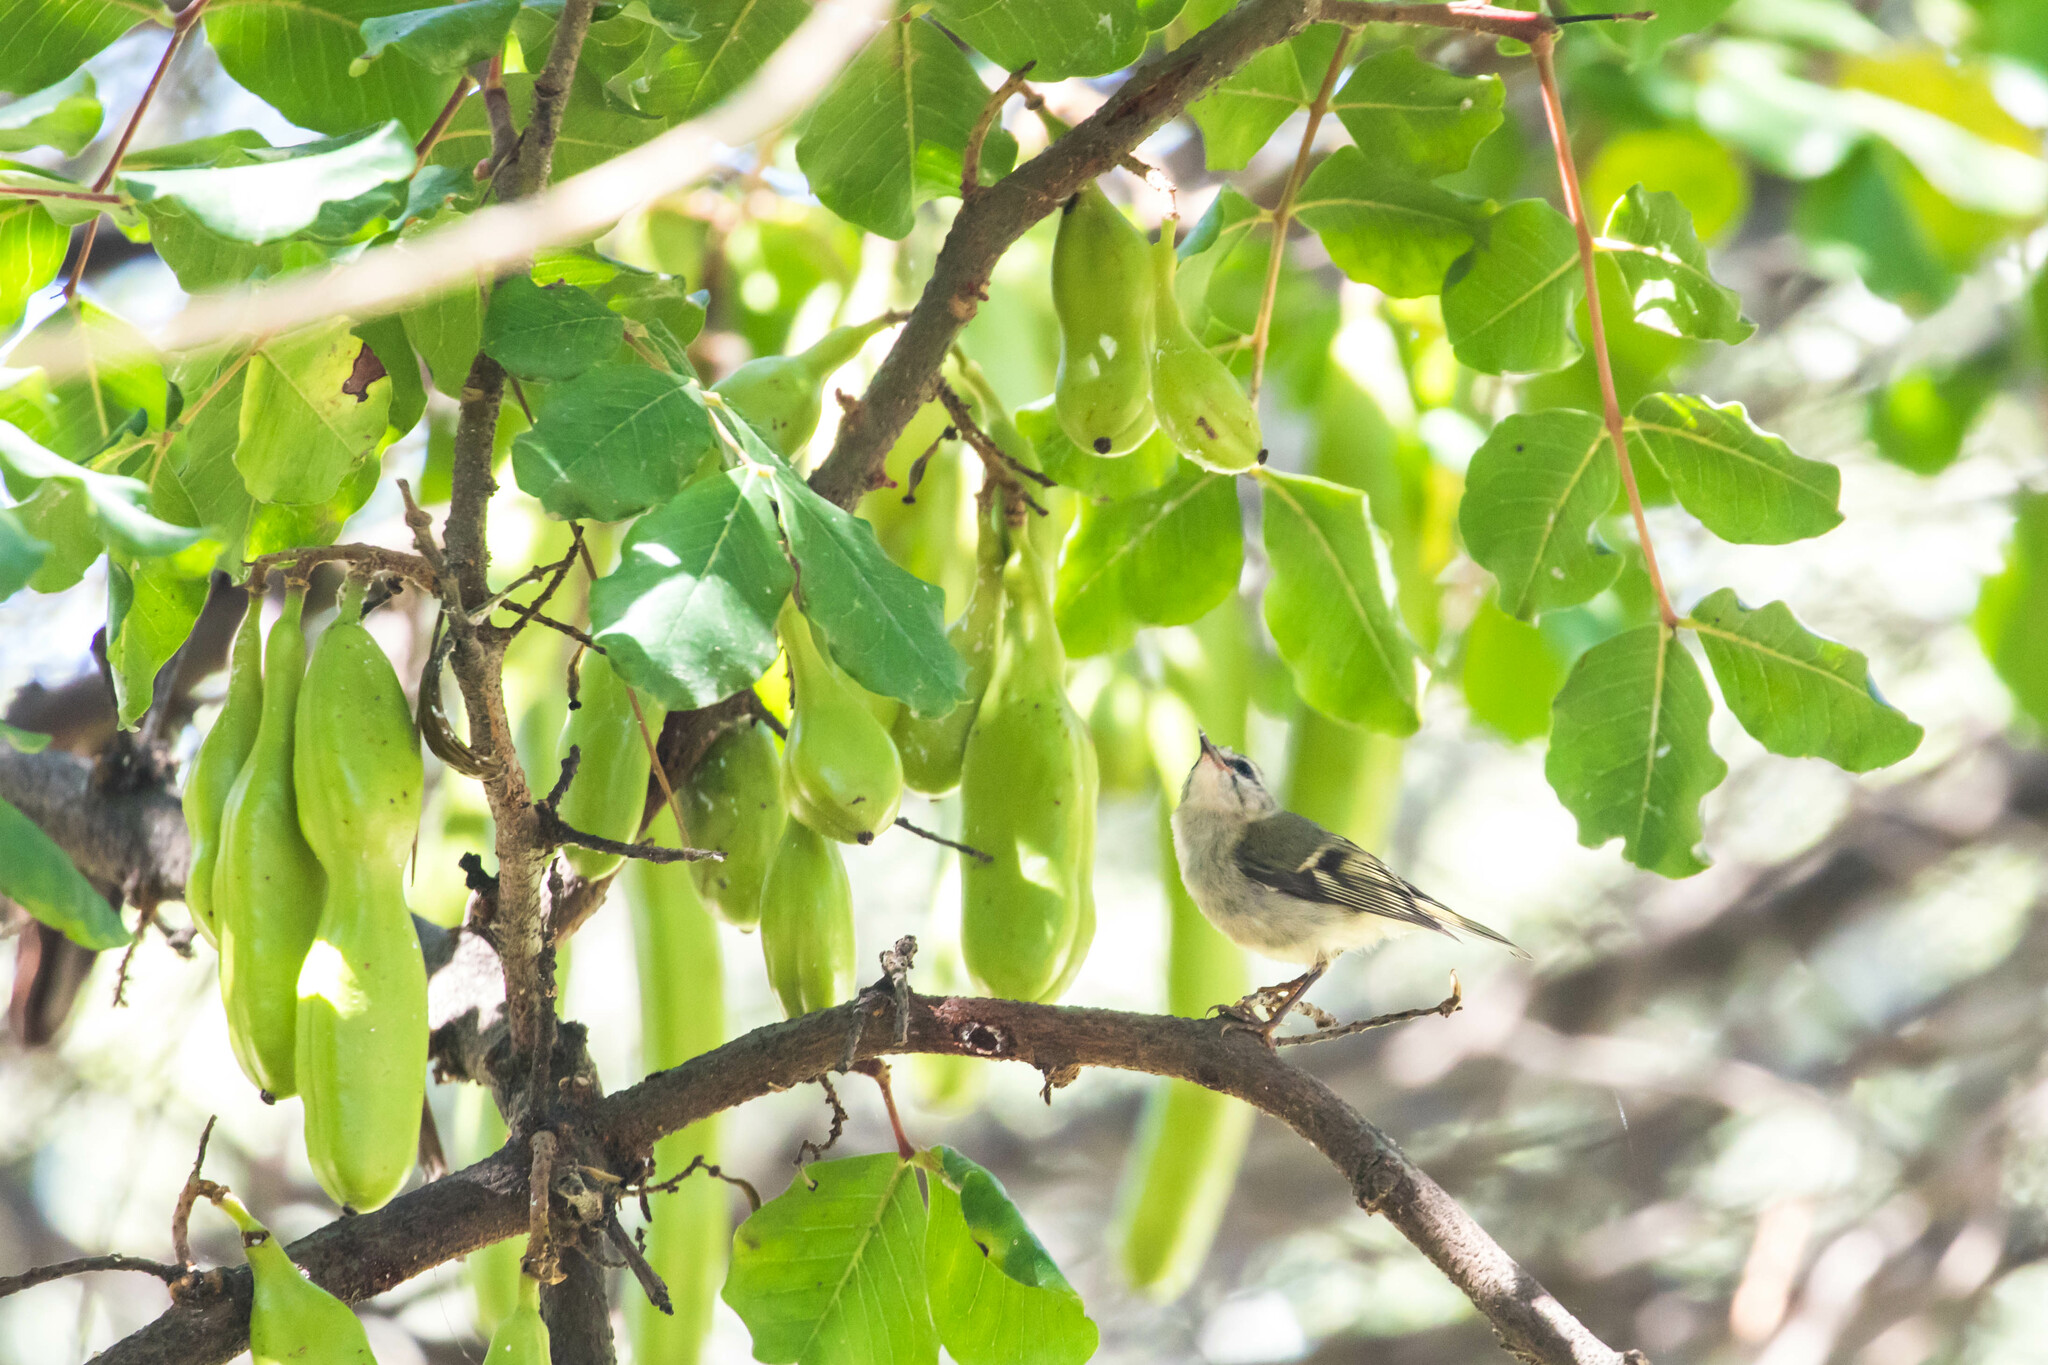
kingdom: Animalia
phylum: Chordata
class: Aves
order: Passeriformes
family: Regulidae
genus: Regulus
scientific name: Regulus ignicapilla
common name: Firecrest
